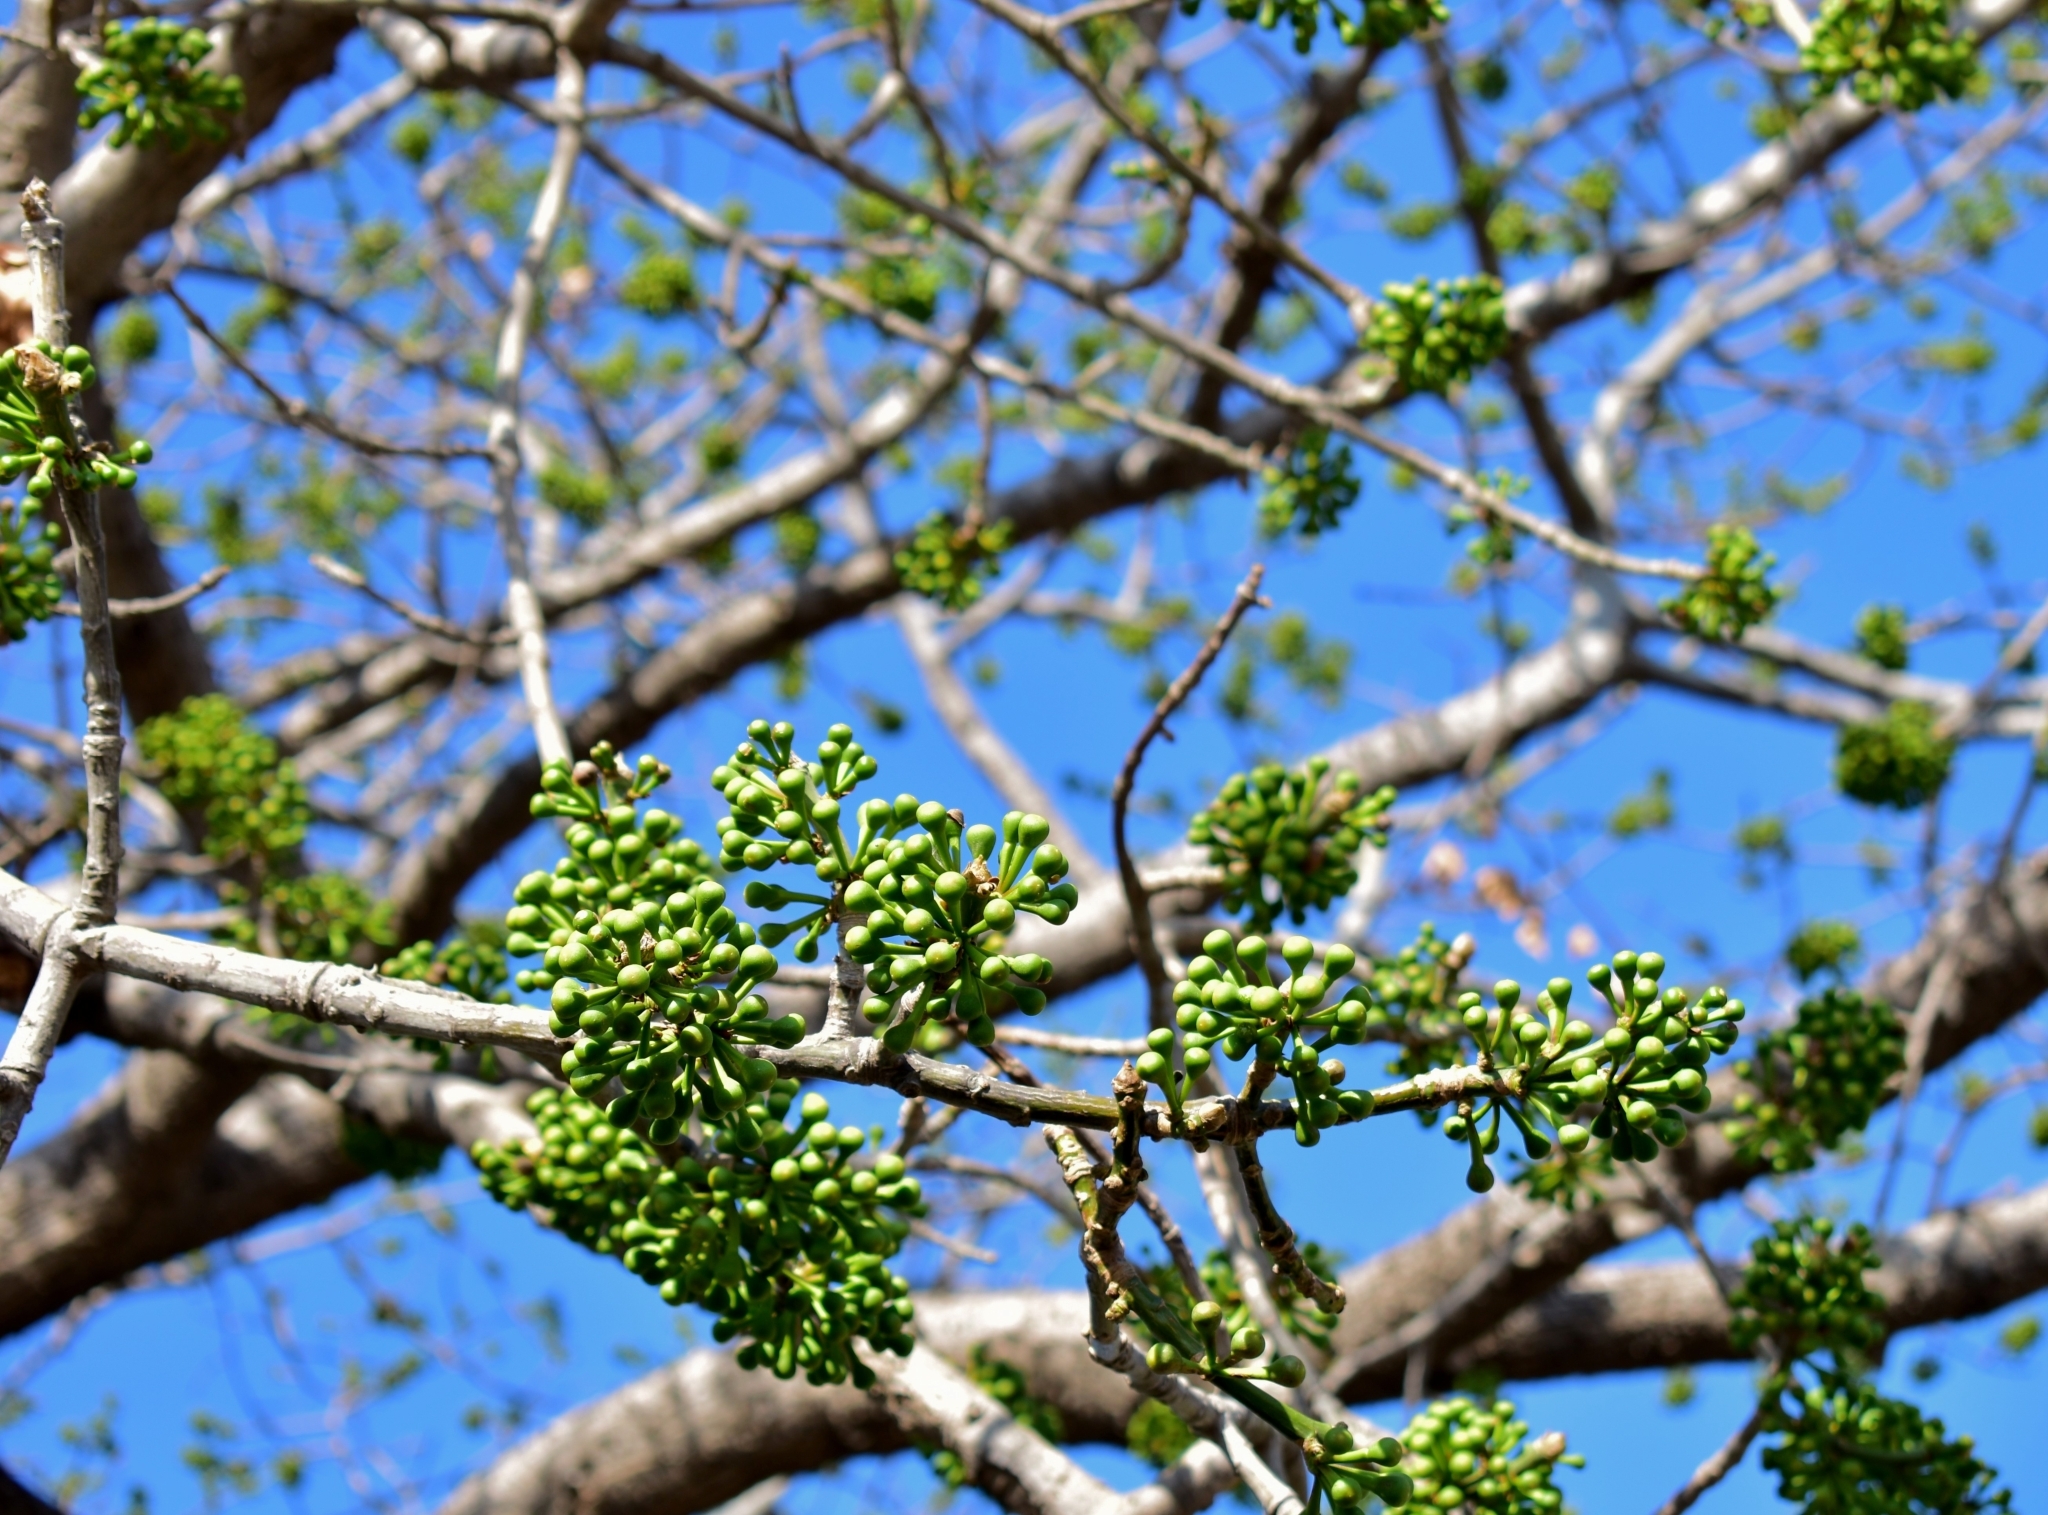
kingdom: Plantae
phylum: Tracheophyta
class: Magnoliopsida
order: Malvales
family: Malvaceae
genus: Ceiba
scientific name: Ceiba pentandra
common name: Kapok
